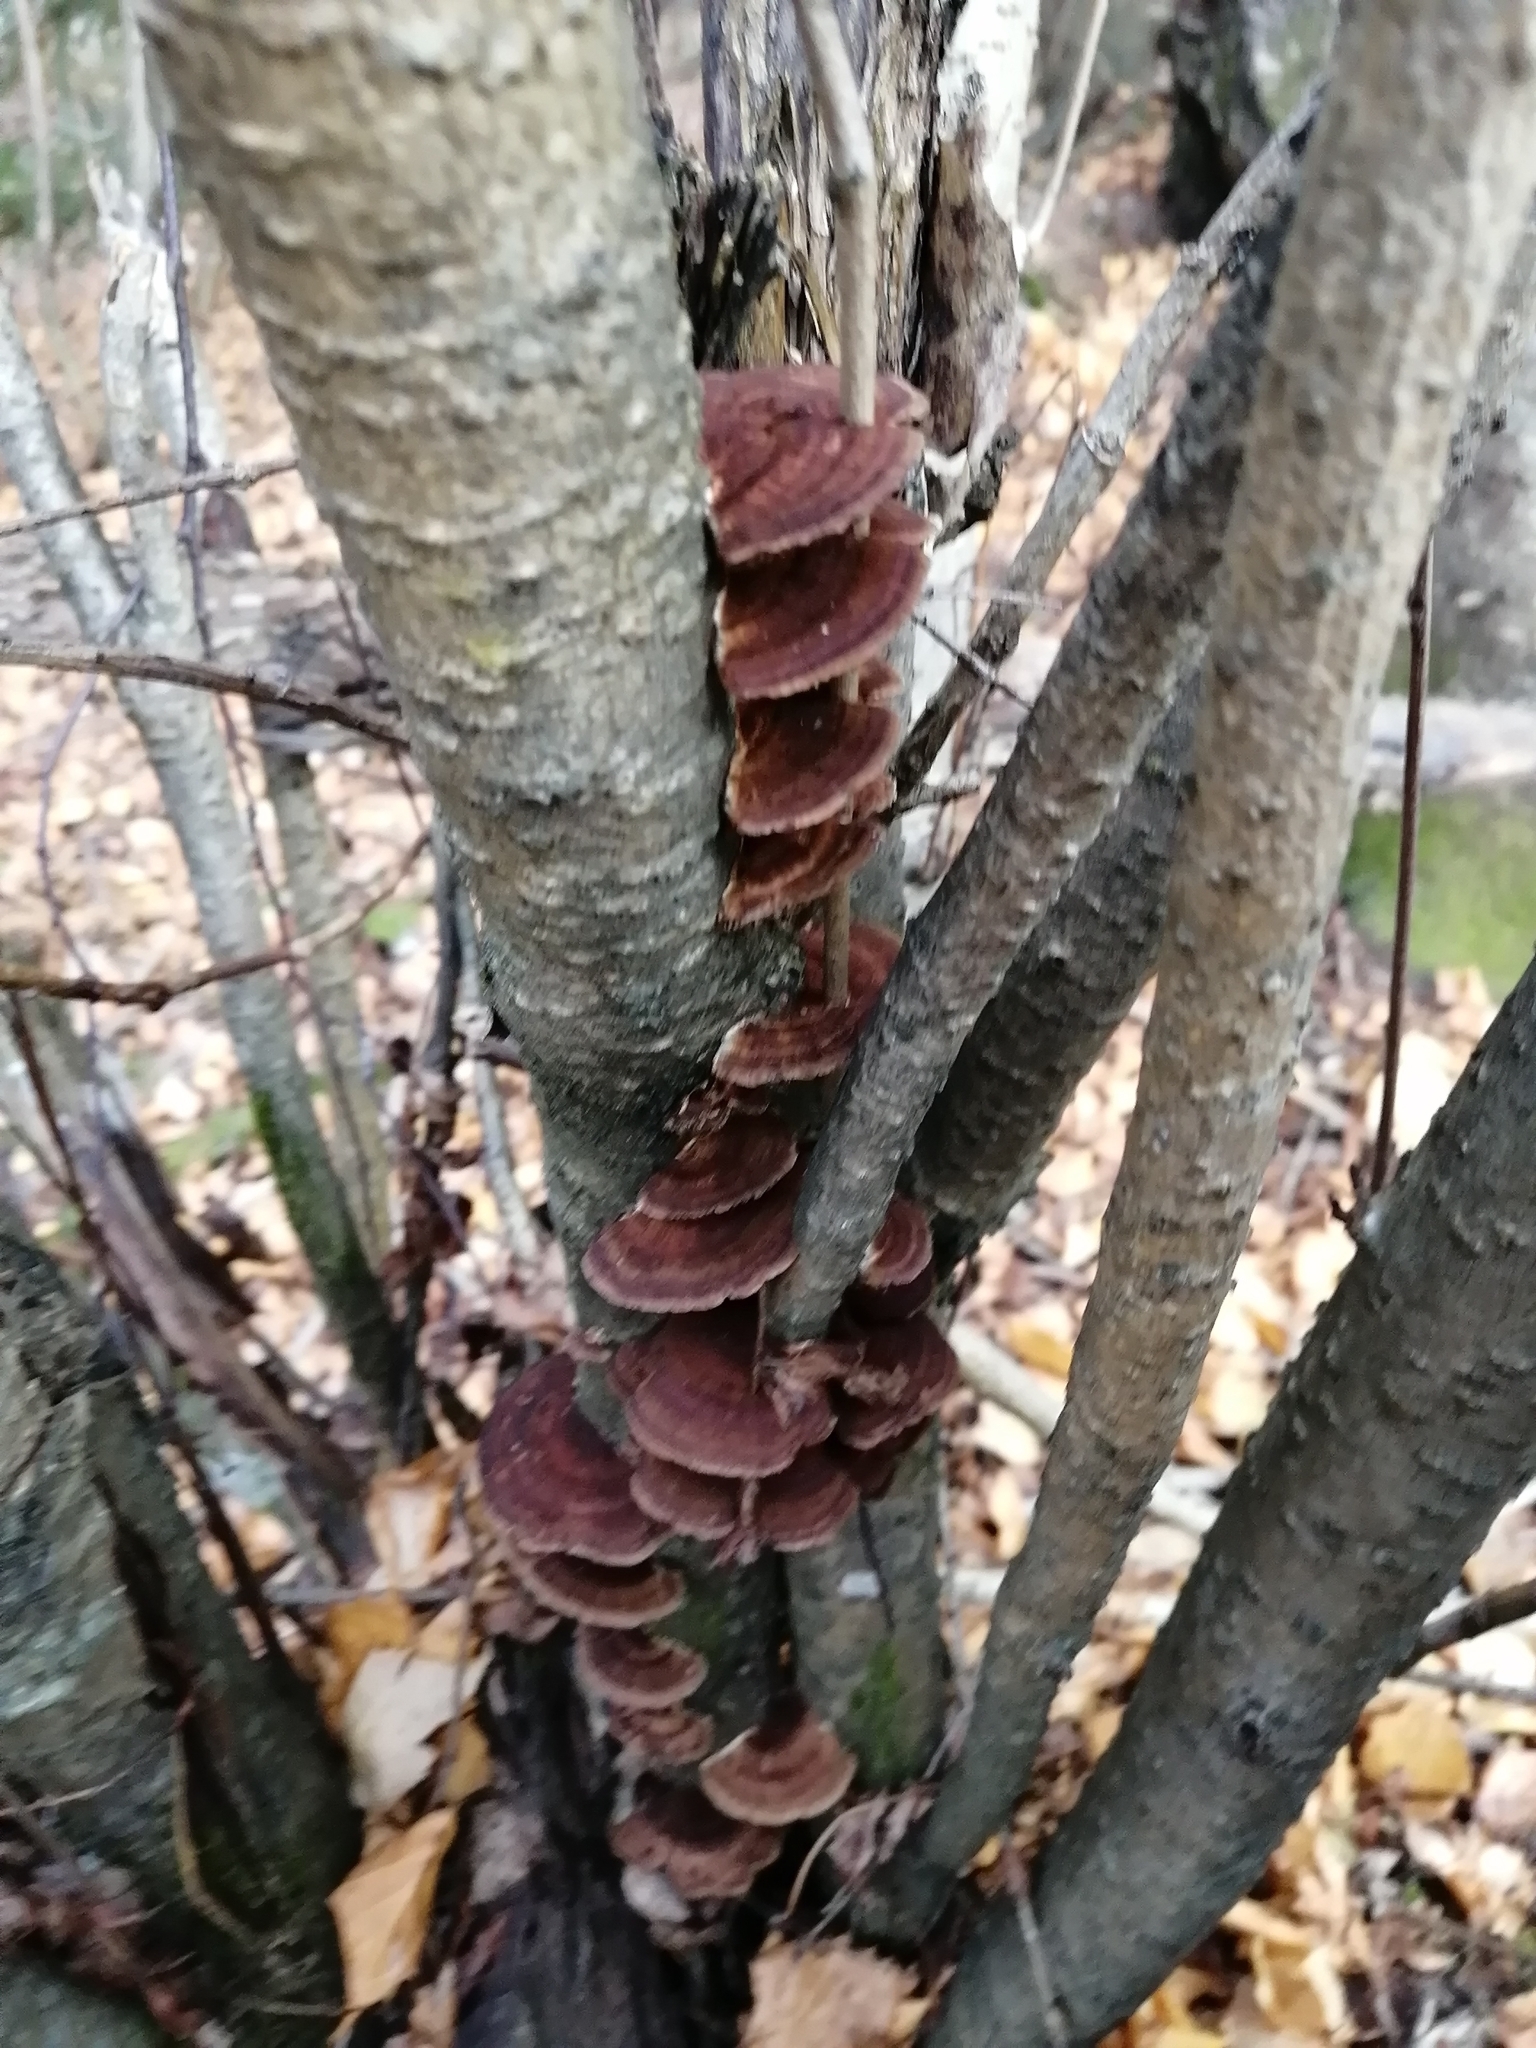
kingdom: Fungi
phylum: Basidiomycota
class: Agaricomycetes
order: Polyporales
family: Polyporaceae
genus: Daedaleopsis
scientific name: Daedaleopsis tricolor
